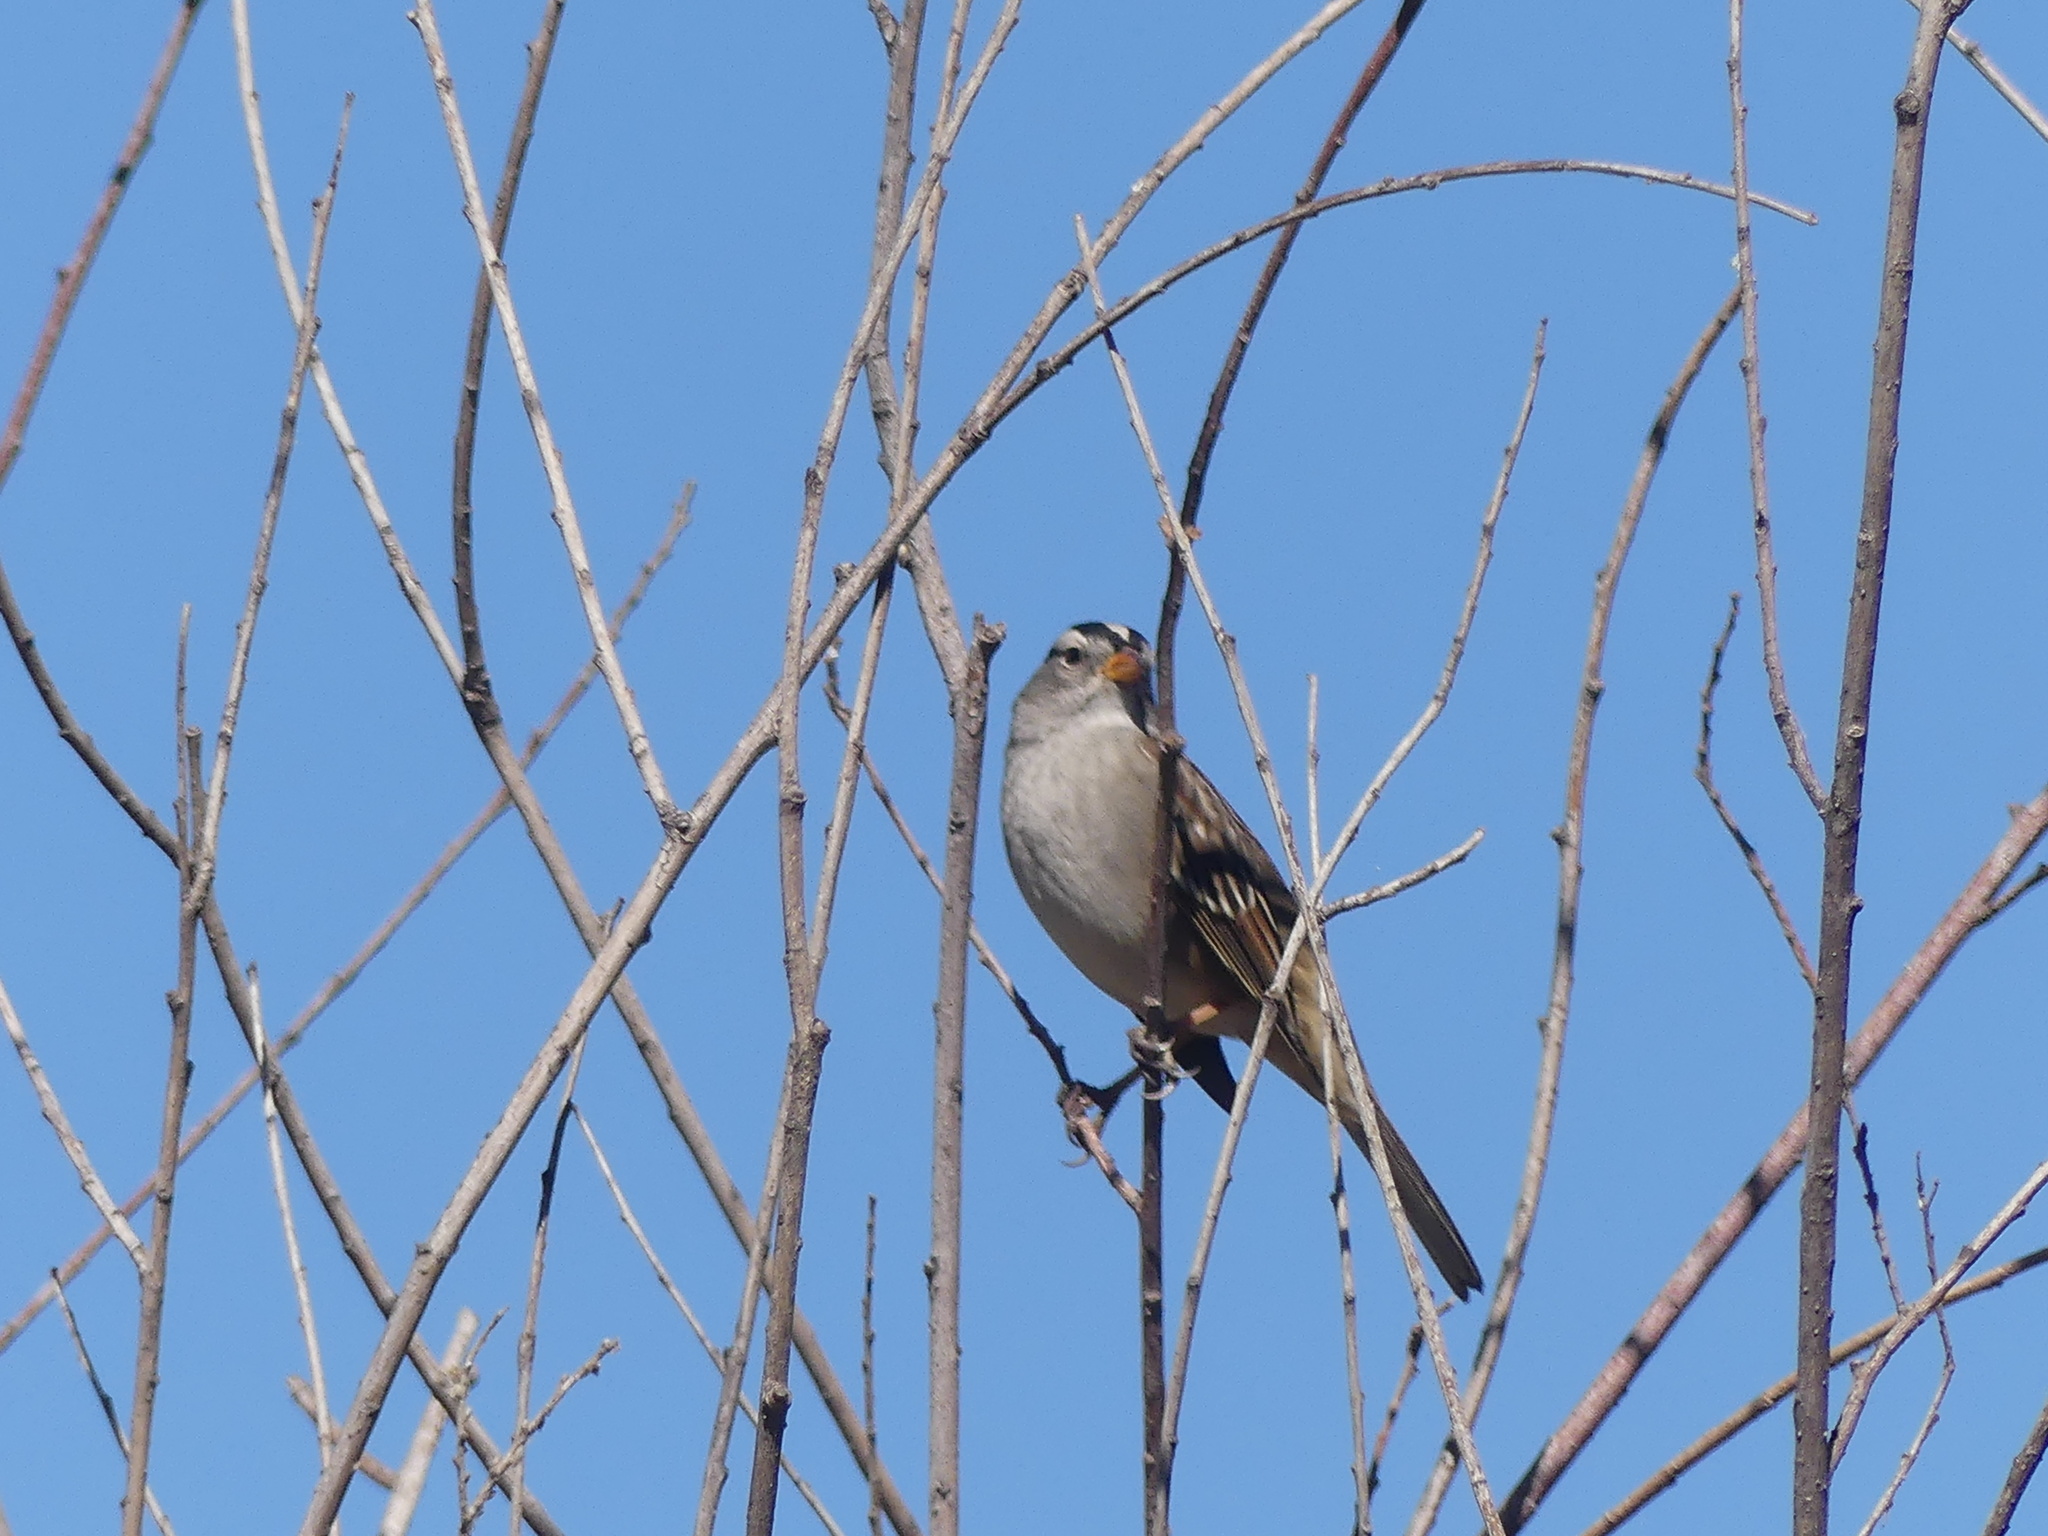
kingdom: Animalia
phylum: Chordata
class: Aves
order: Passeriformes
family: Passerellidae
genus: Zonotrichia
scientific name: Zonotrichia leucophrys
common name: White-crowned sparrow
